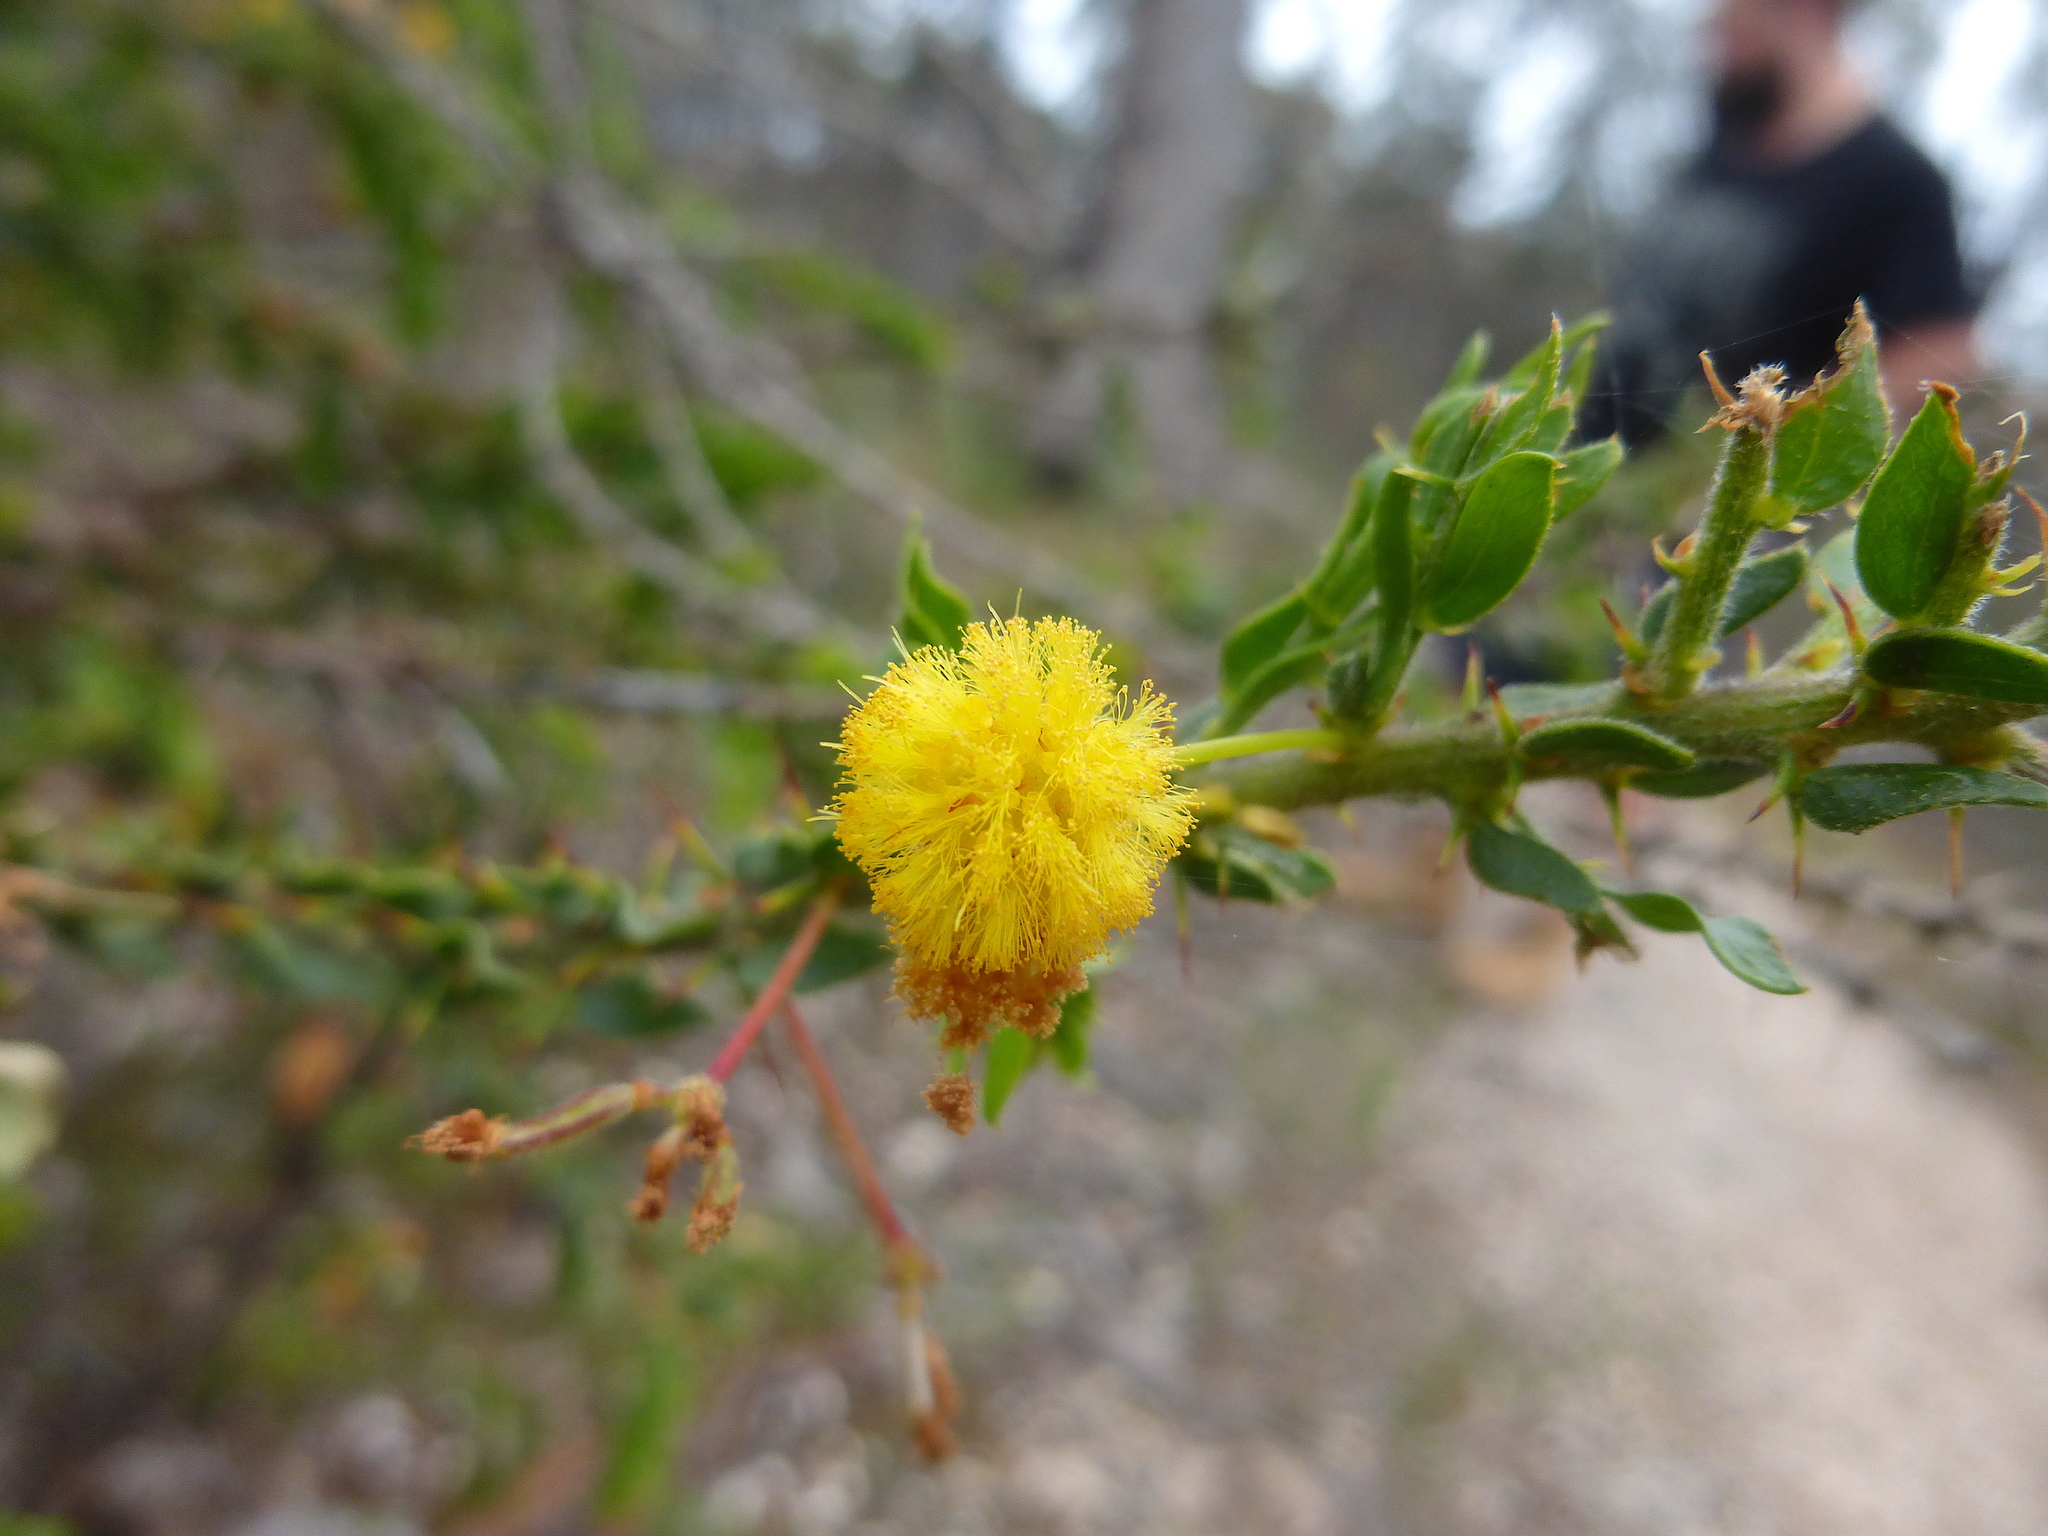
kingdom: Plantae
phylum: Tracheophyta
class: Magnoliopsida
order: Fabales
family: Fabaceae
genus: Acacia
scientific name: Acacia paradoxa
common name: Paradox acacia
